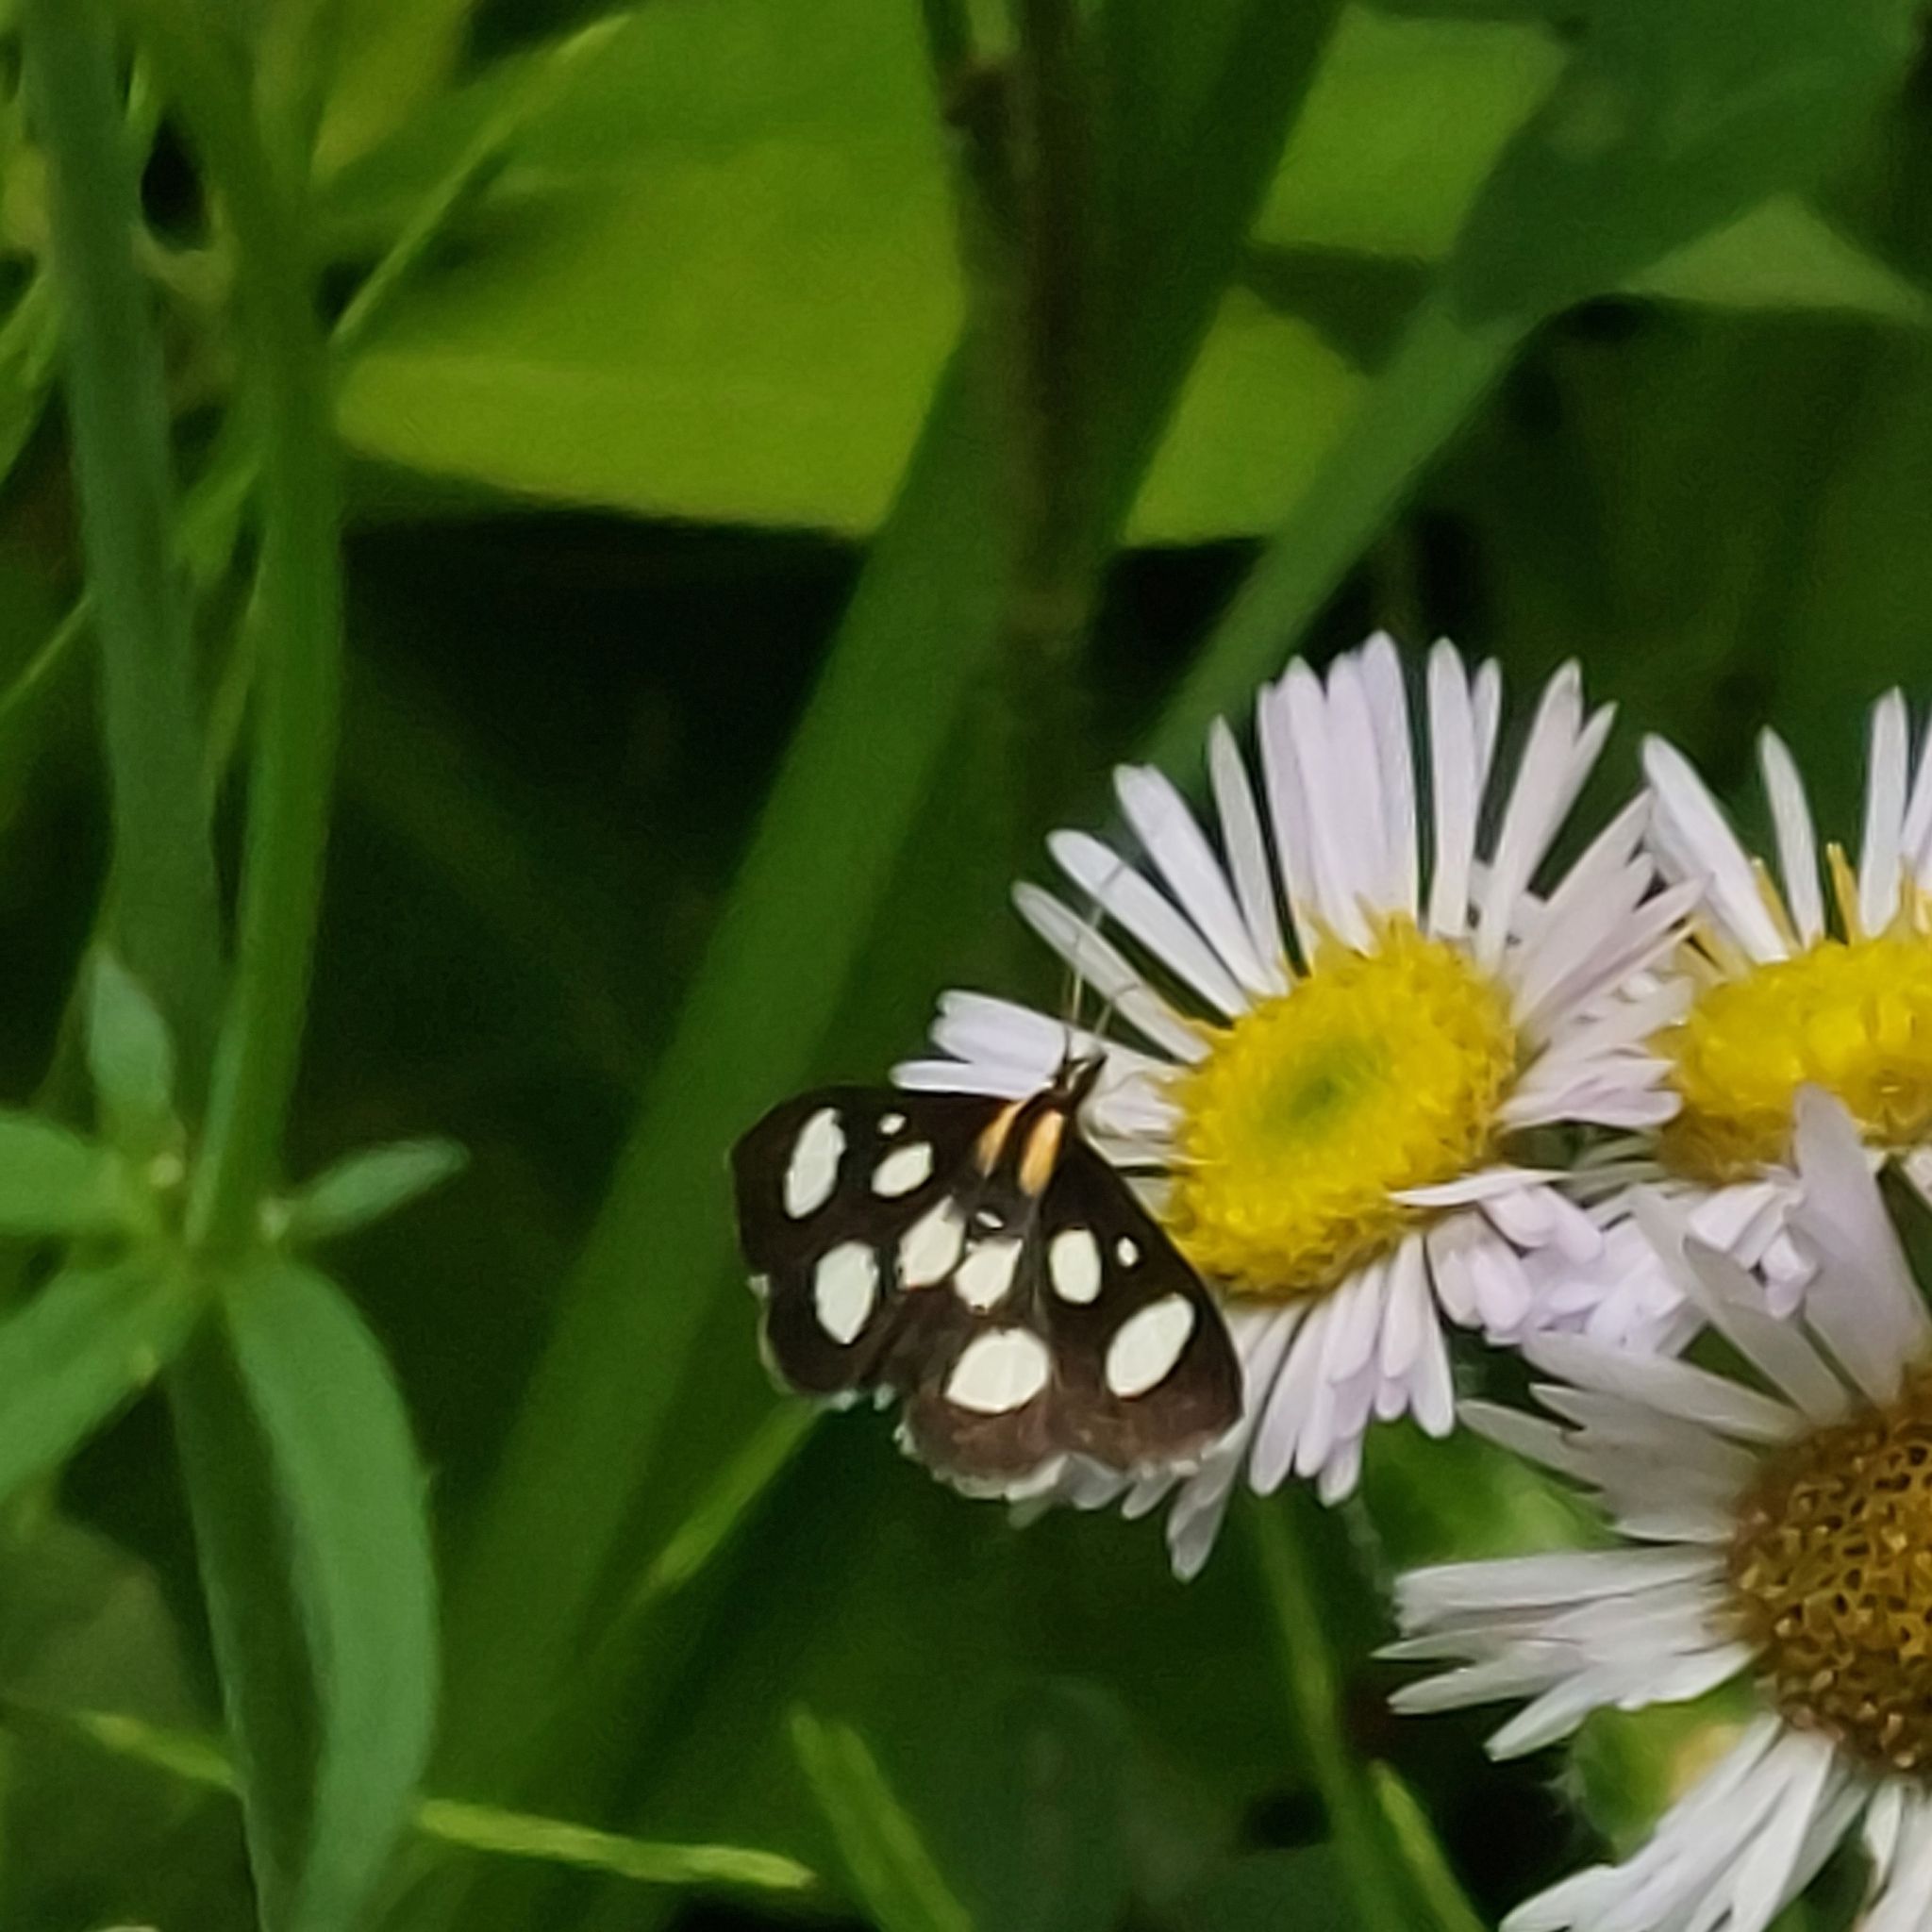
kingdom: Animalia
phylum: Arthropoda
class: Insecta
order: Lepidoptera
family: Crambidae
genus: Anania
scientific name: Anania funebris
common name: White-spotted sable moth
